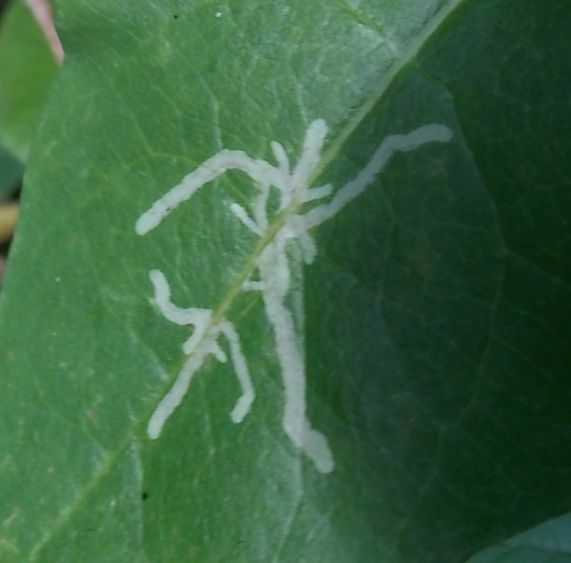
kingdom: Animalia
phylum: Arthropoda
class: Insecta
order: Diptera
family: Agromyzidae
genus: Phytomyza
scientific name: Phytomyza aprilina
